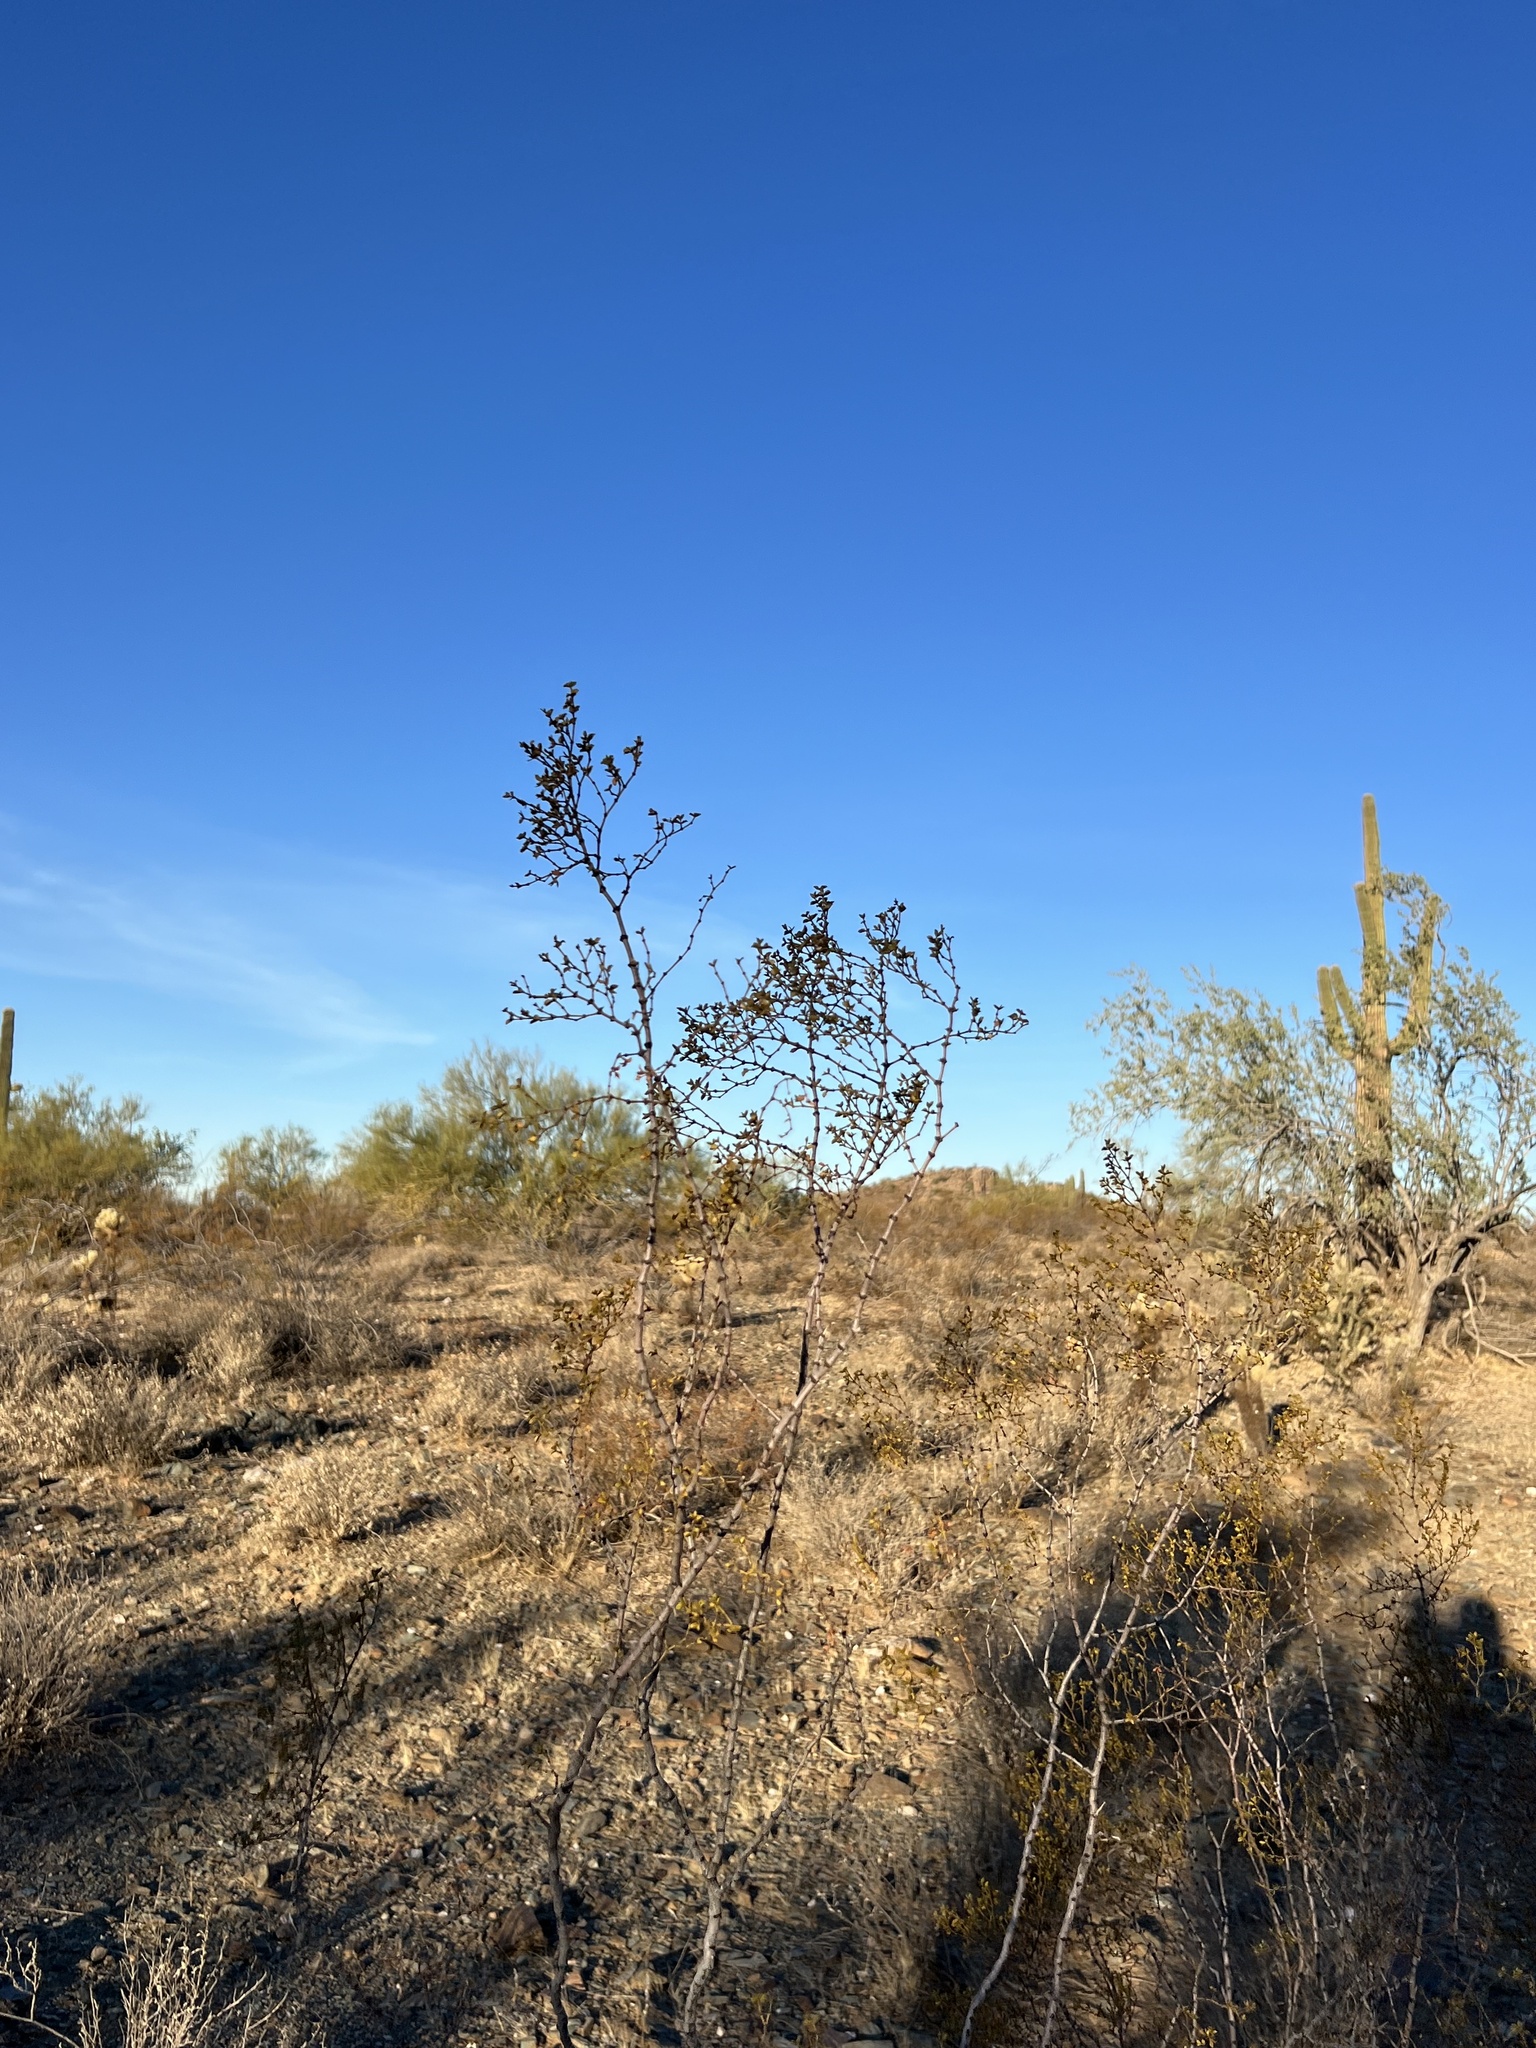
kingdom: Plantae
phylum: Tracheophyta
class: Magnoliopsida
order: Zygophyllales
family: Zygophyllaceae
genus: Larrea
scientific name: Larrea tridentata
